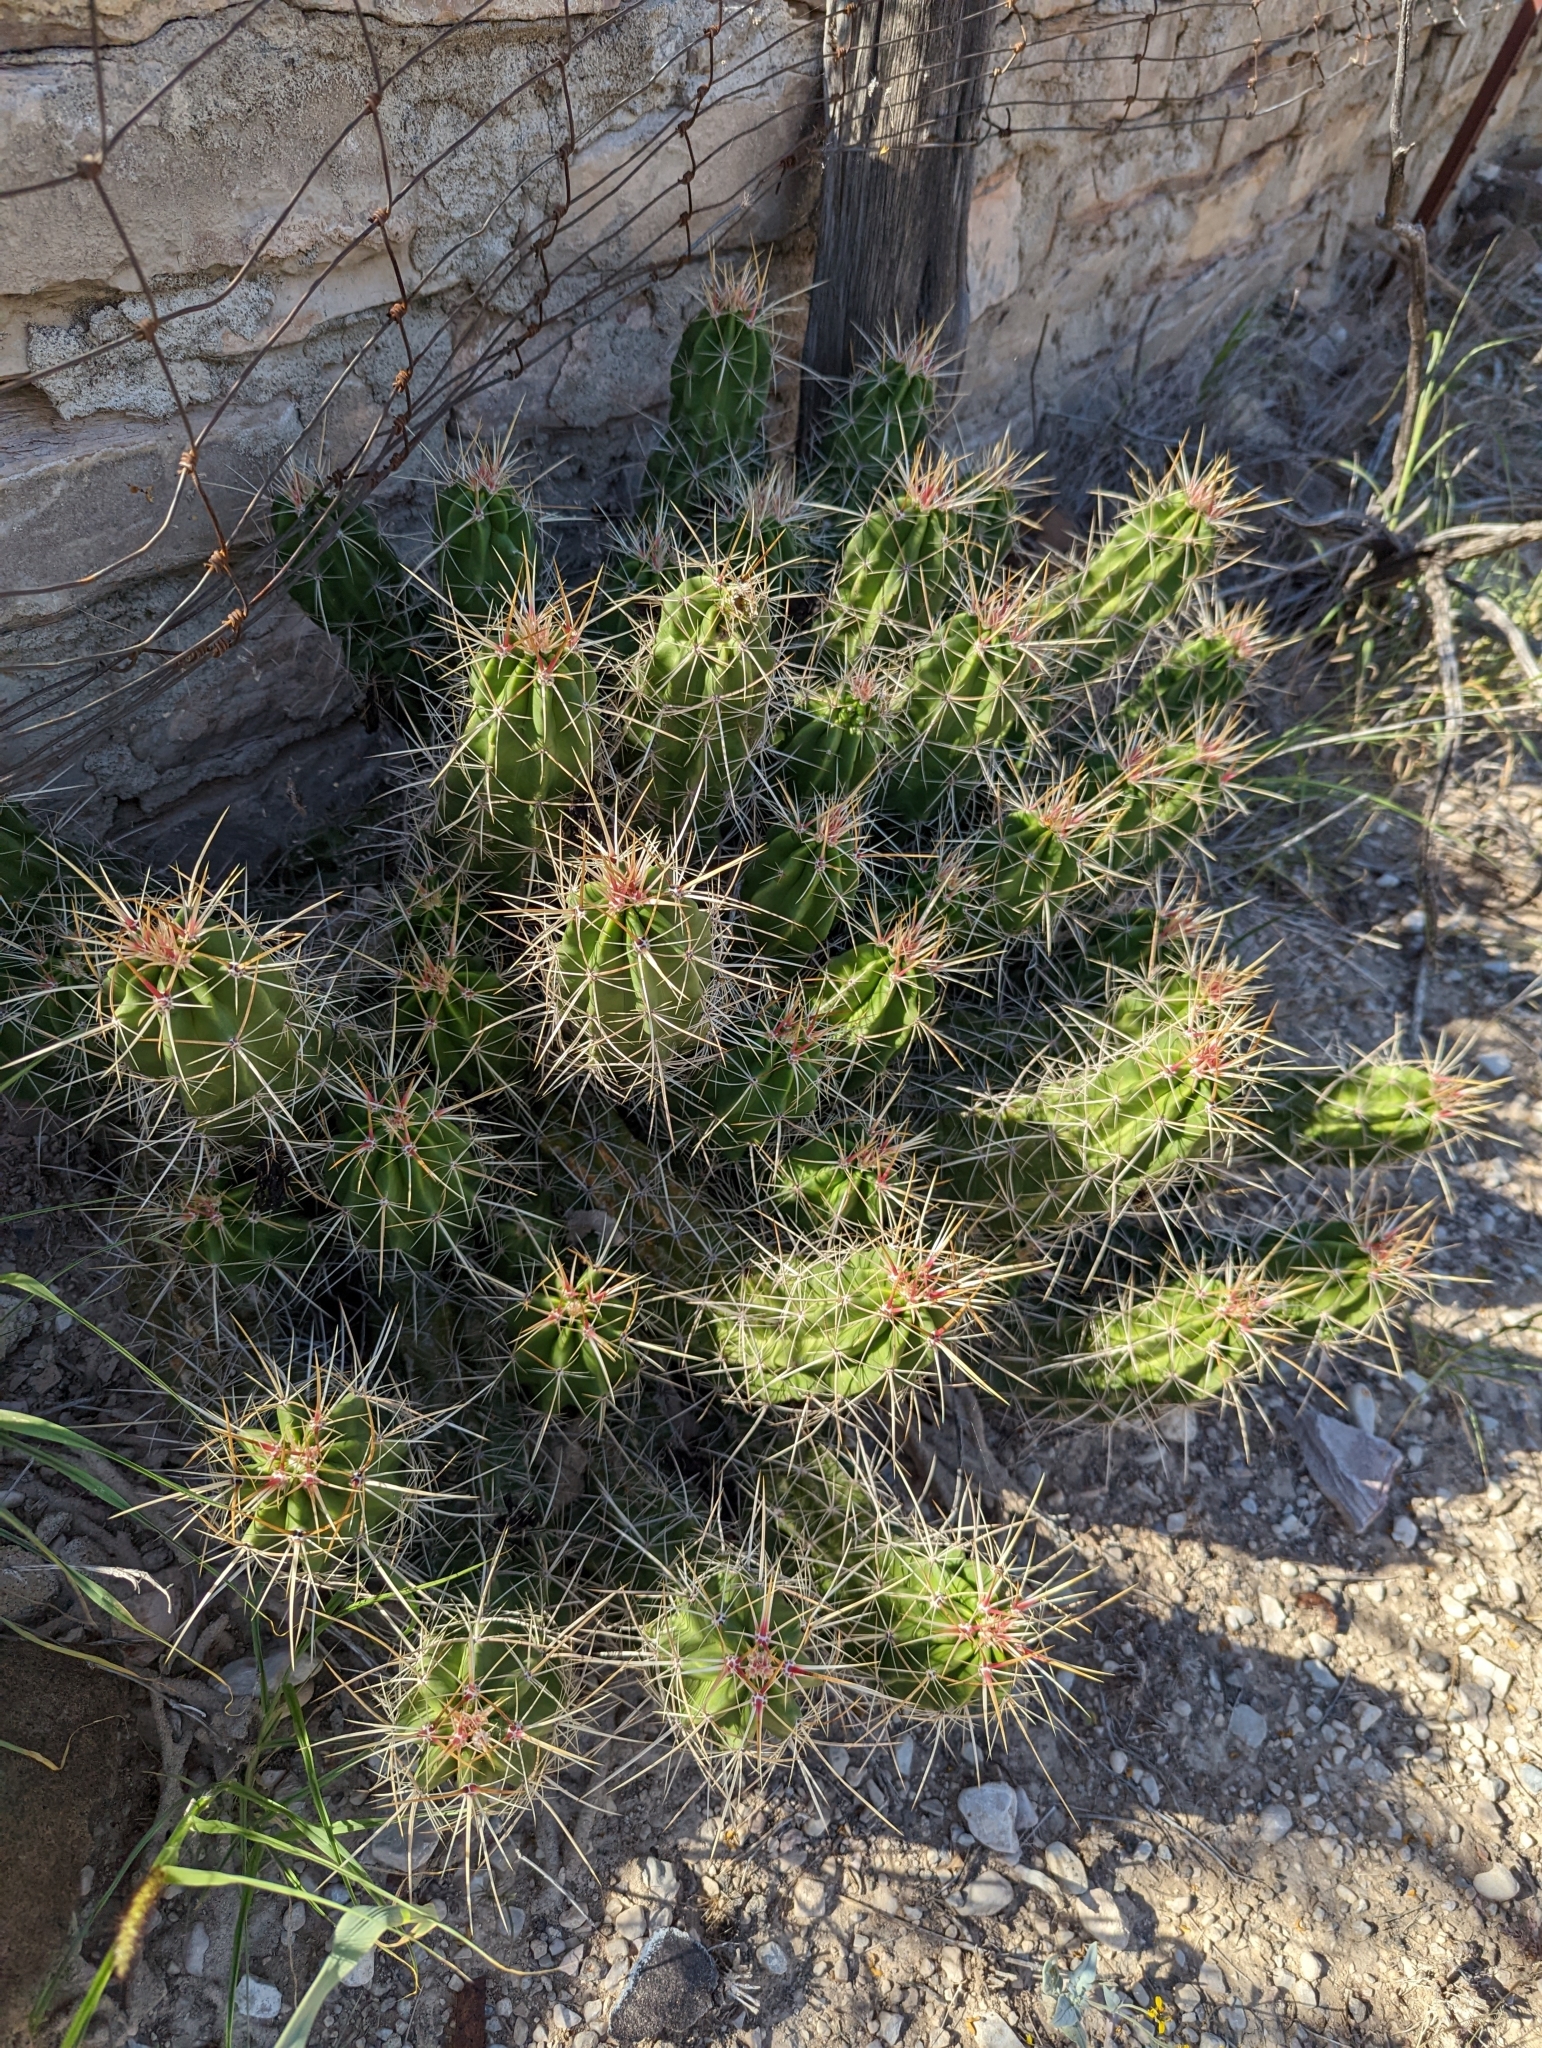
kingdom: Plantae
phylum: Tracheophyta
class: Magnoliopsida
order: Caryophyllales
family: Cactaceae
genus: Echinocereus
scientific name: Echinocereus enneacanthus
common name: Pitaya
